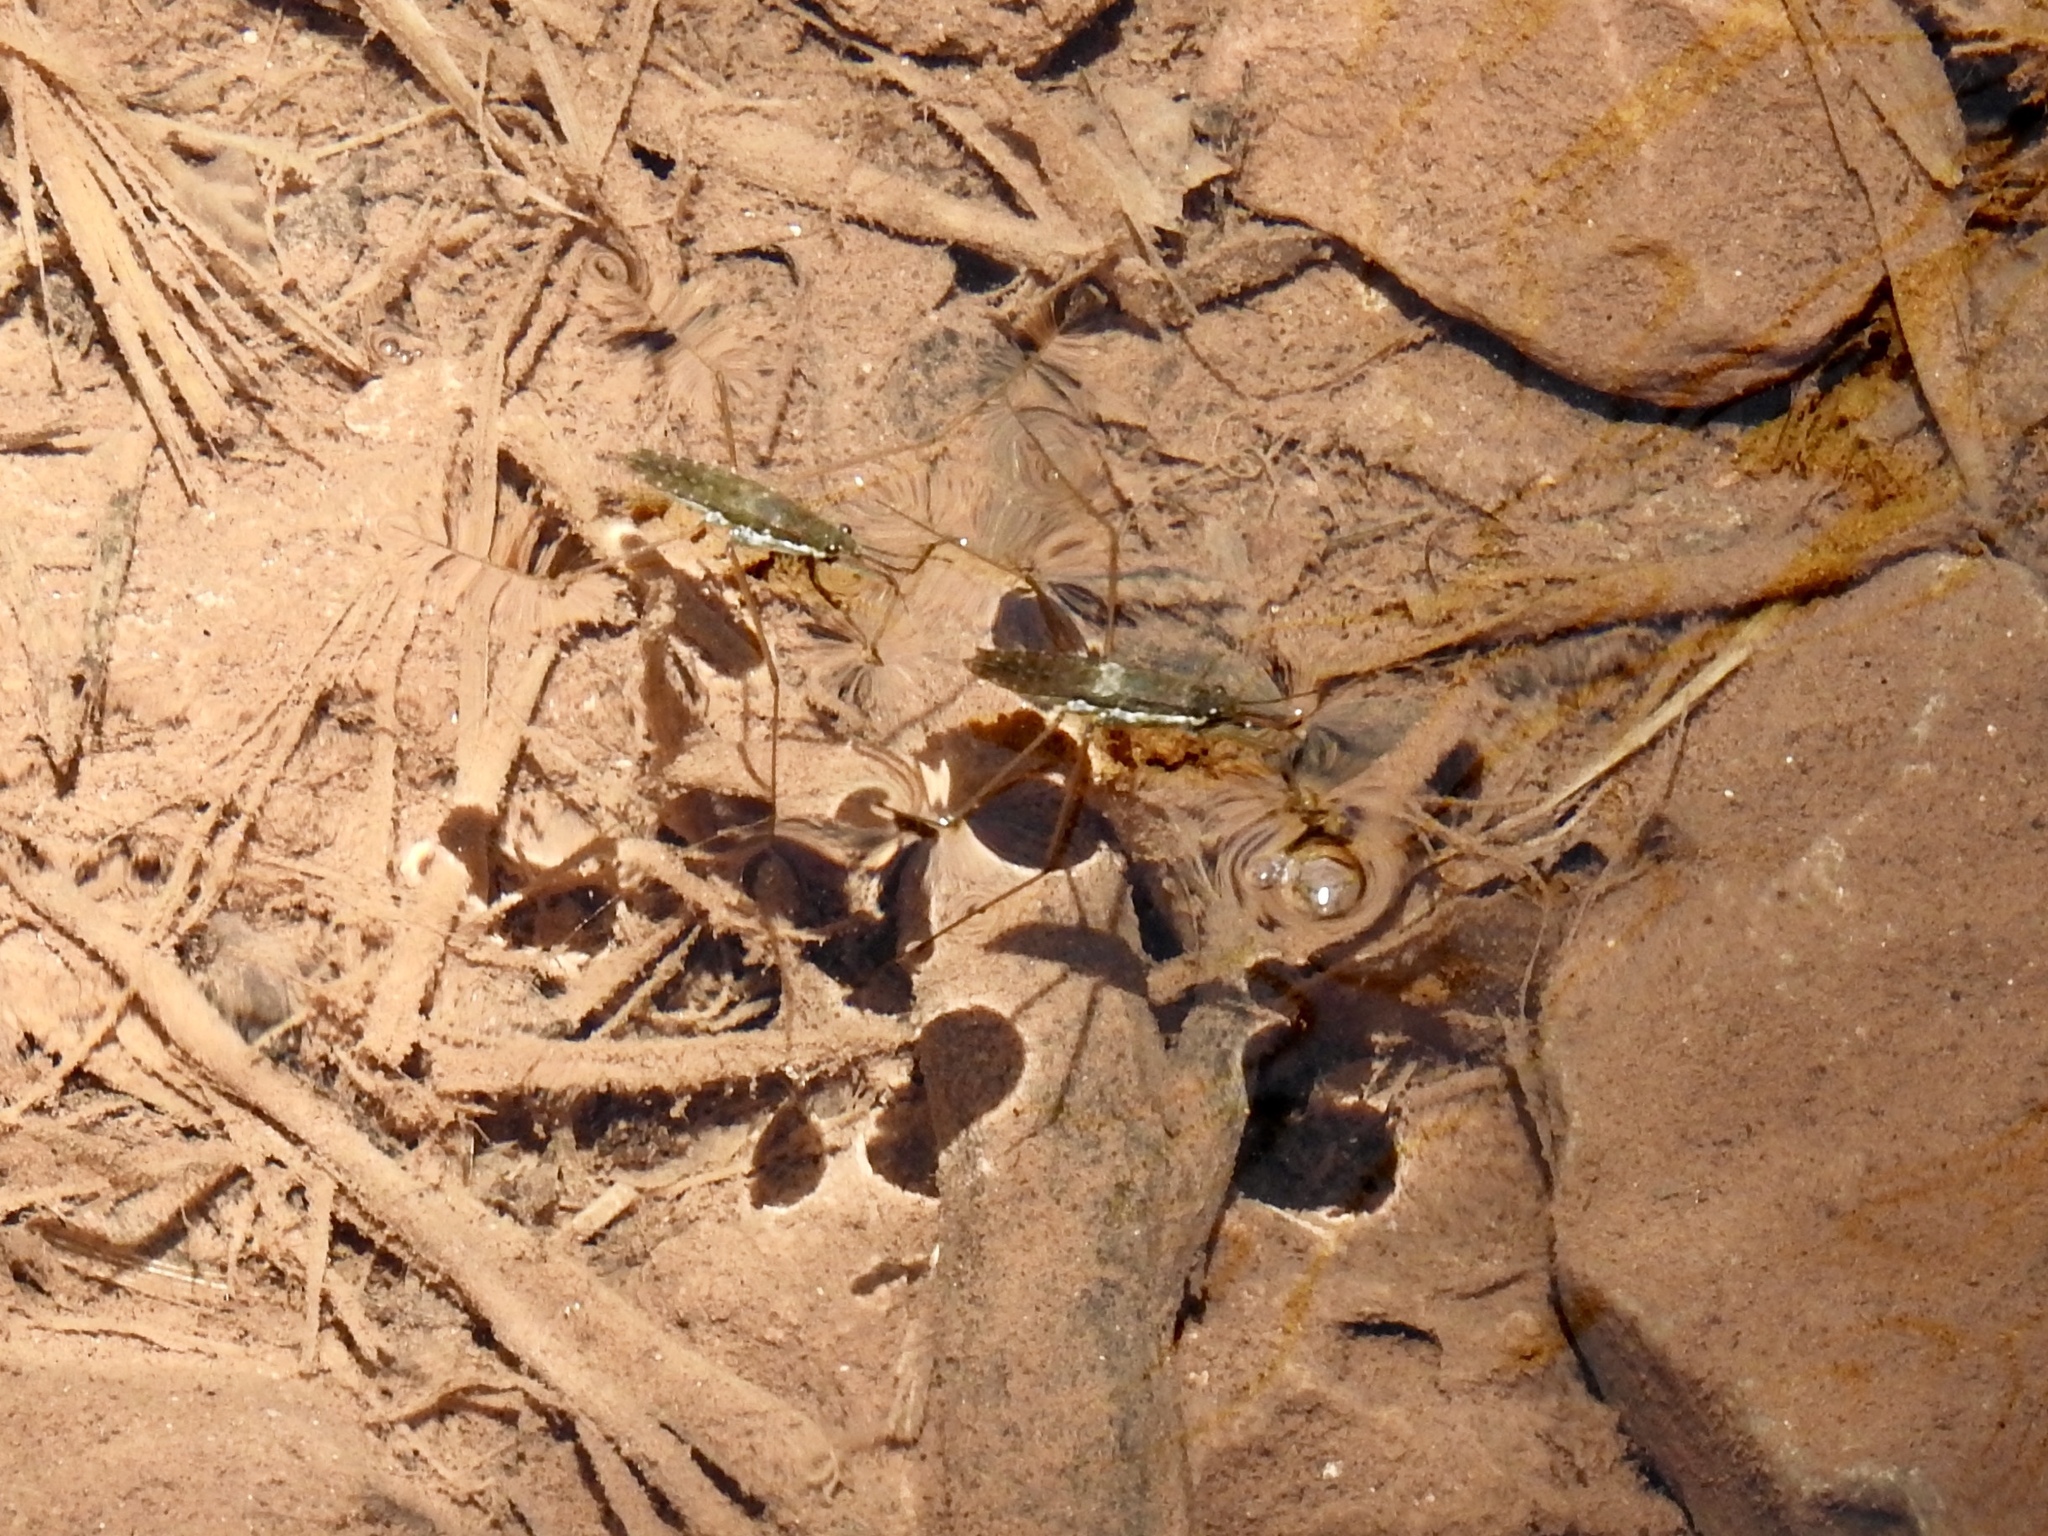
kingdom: Animalia
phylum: Arthropoda
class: Insecta
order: Hemiptera
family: Gerridae
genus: Aquarius
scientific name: Aquarius remigis
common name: Common water strider
